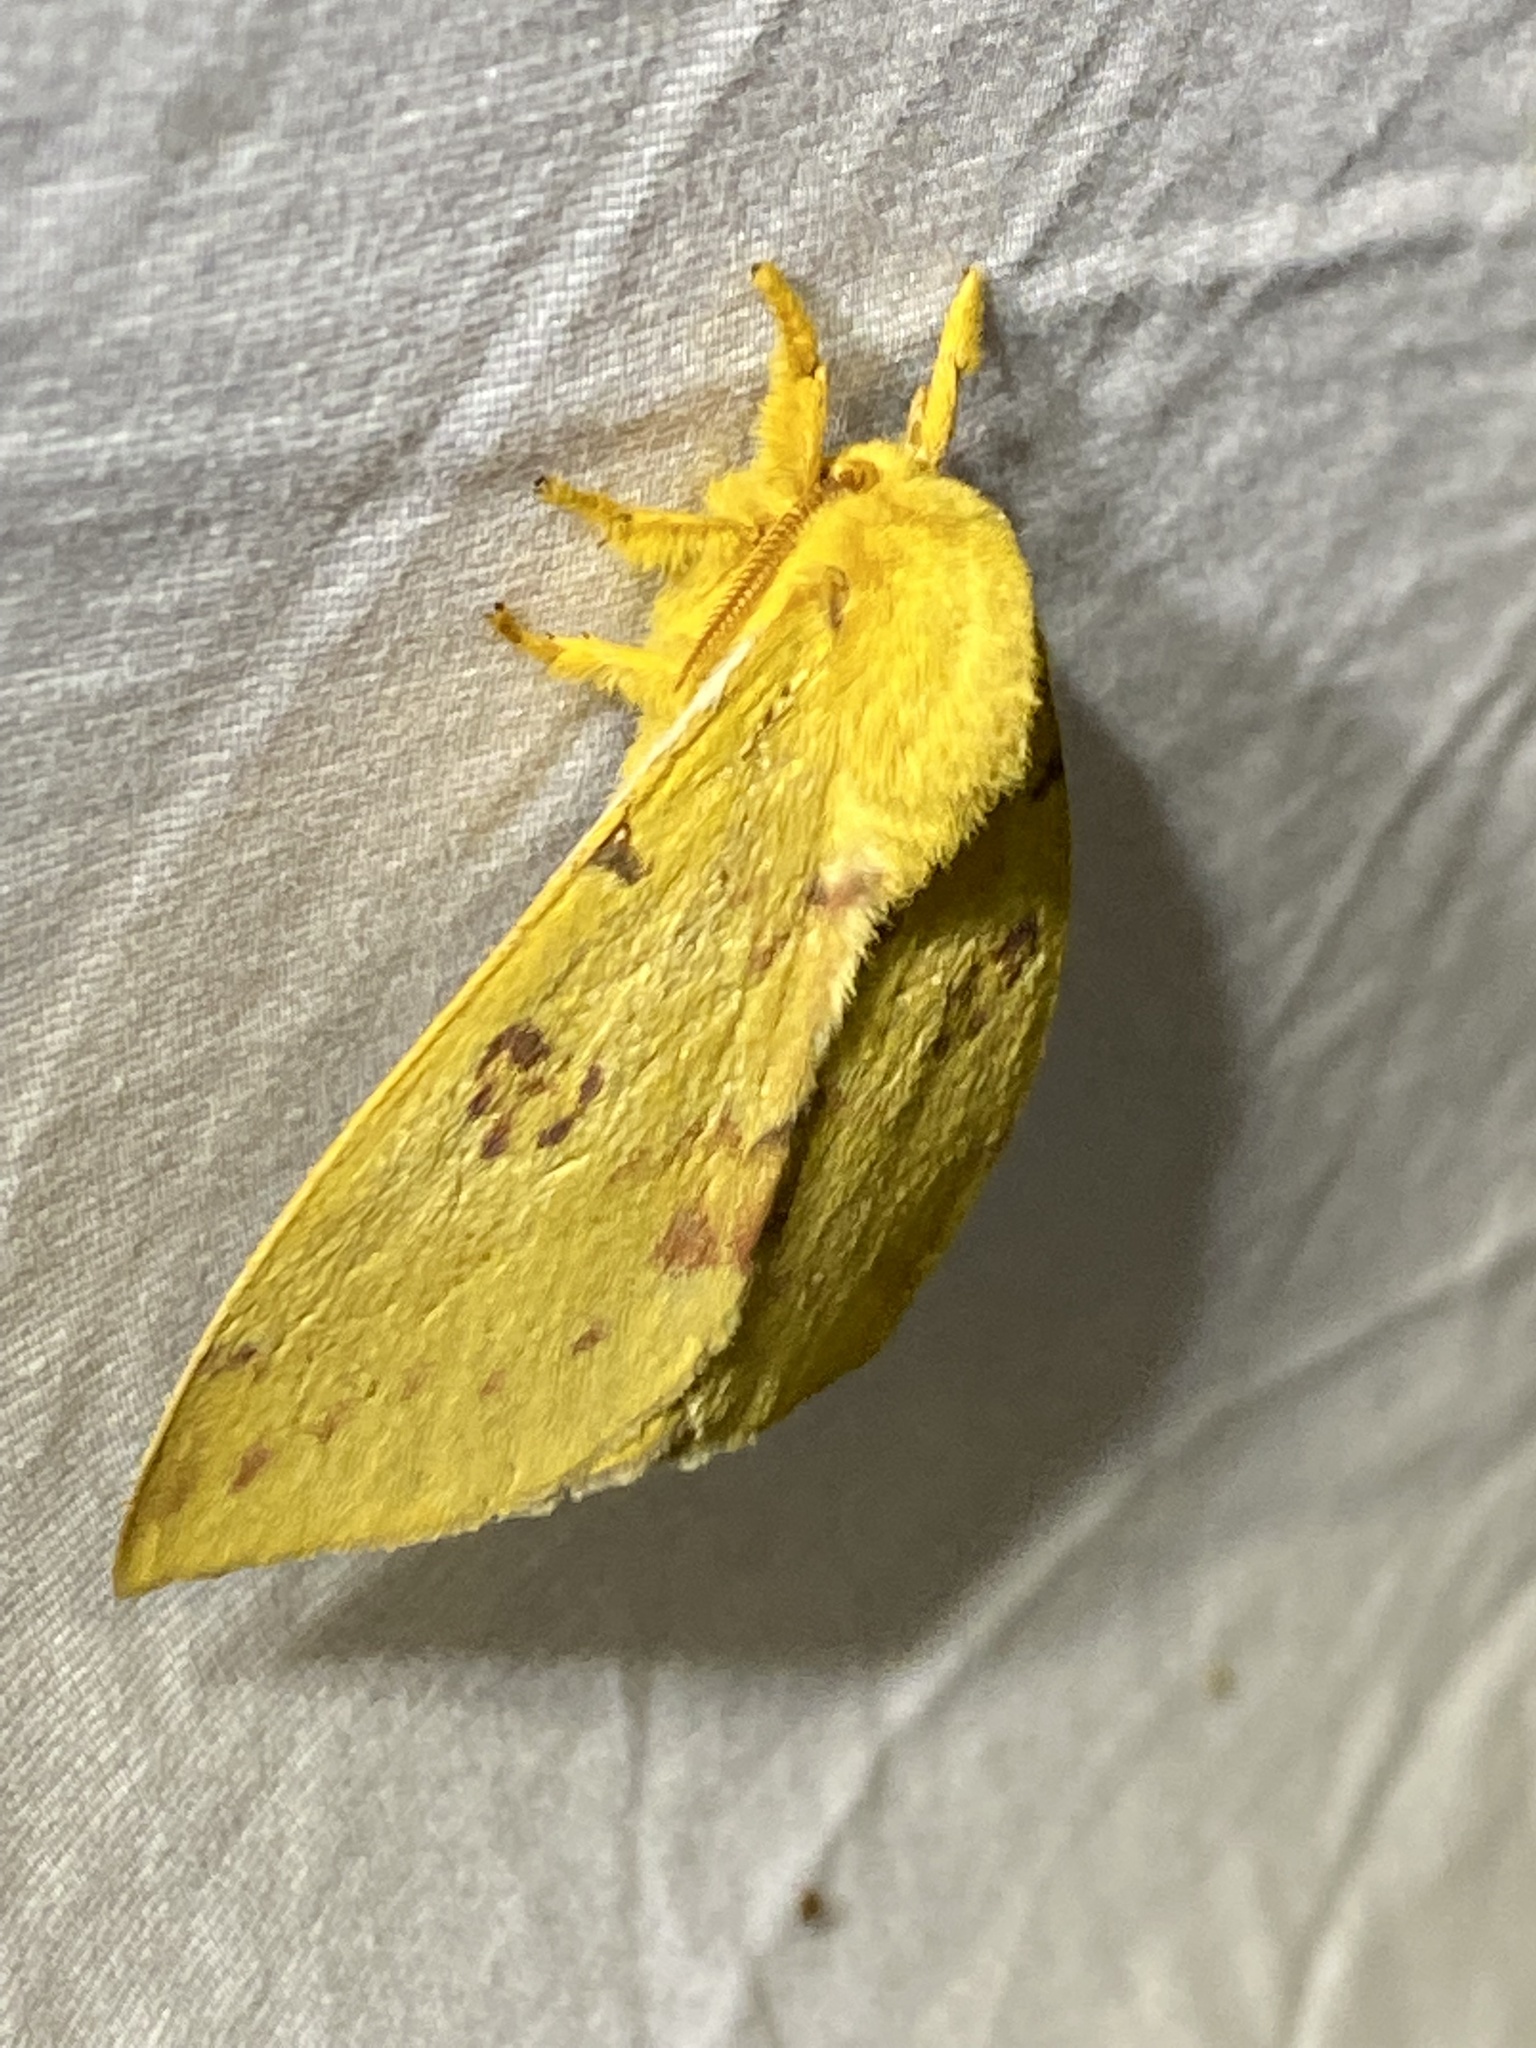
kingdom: Animalia
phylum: Arthropoda
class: Insecta
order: Lepidoptera
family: Saturniidae
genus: Automeris
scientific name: Automeris io
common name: Io moth
